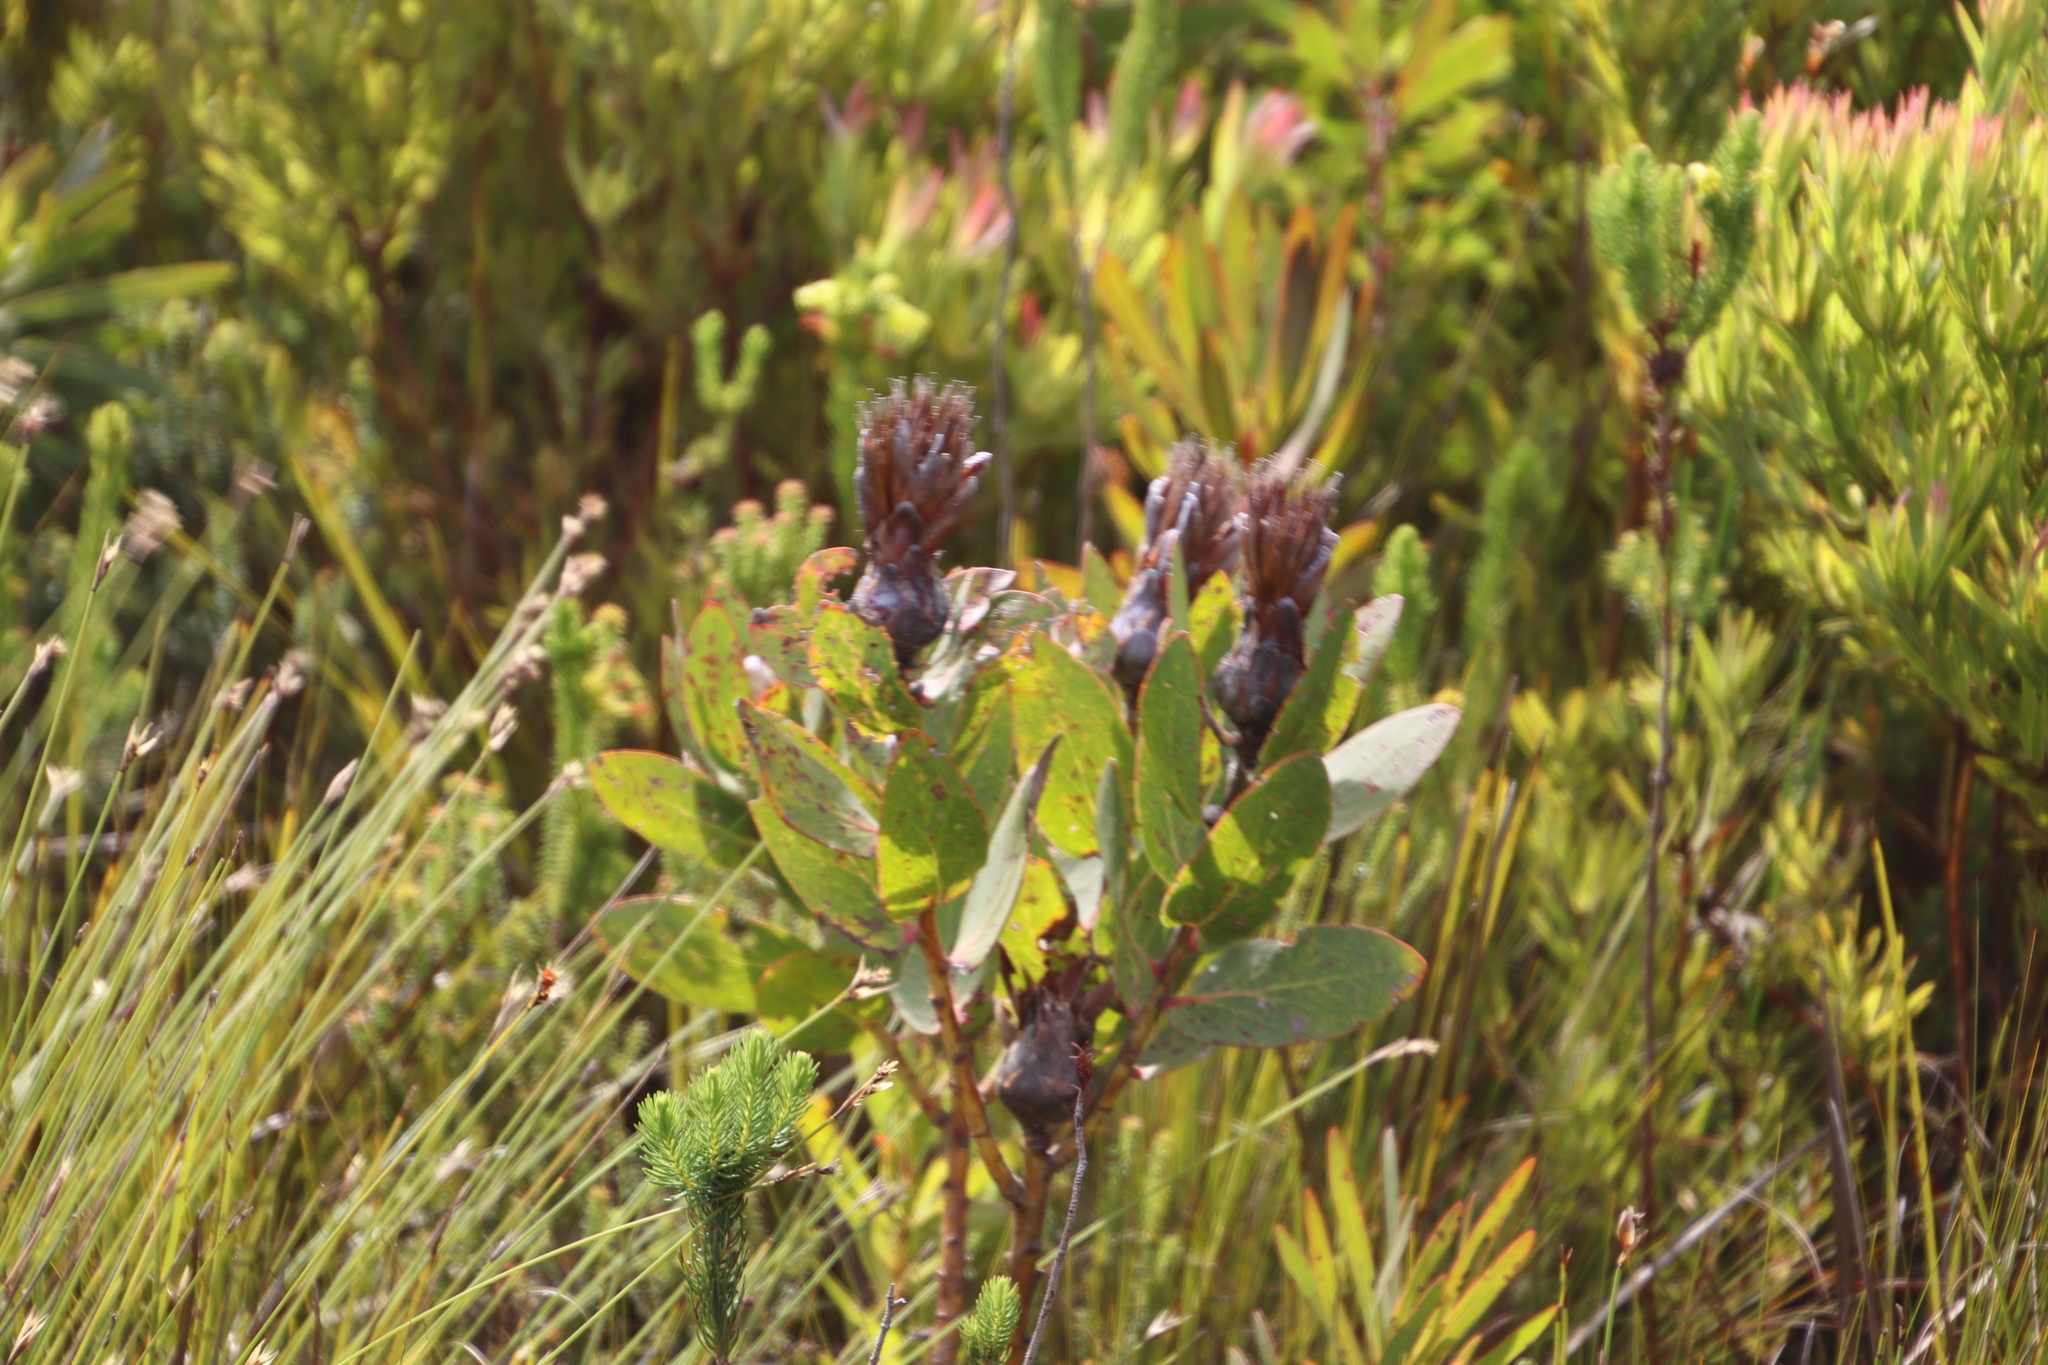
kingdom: Plantae
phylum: Tracheophyta
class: Magnoliopsida
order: Proteales
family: Proteaceae
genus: Protea
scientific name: Protea mundii
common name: Forest sugarbush
